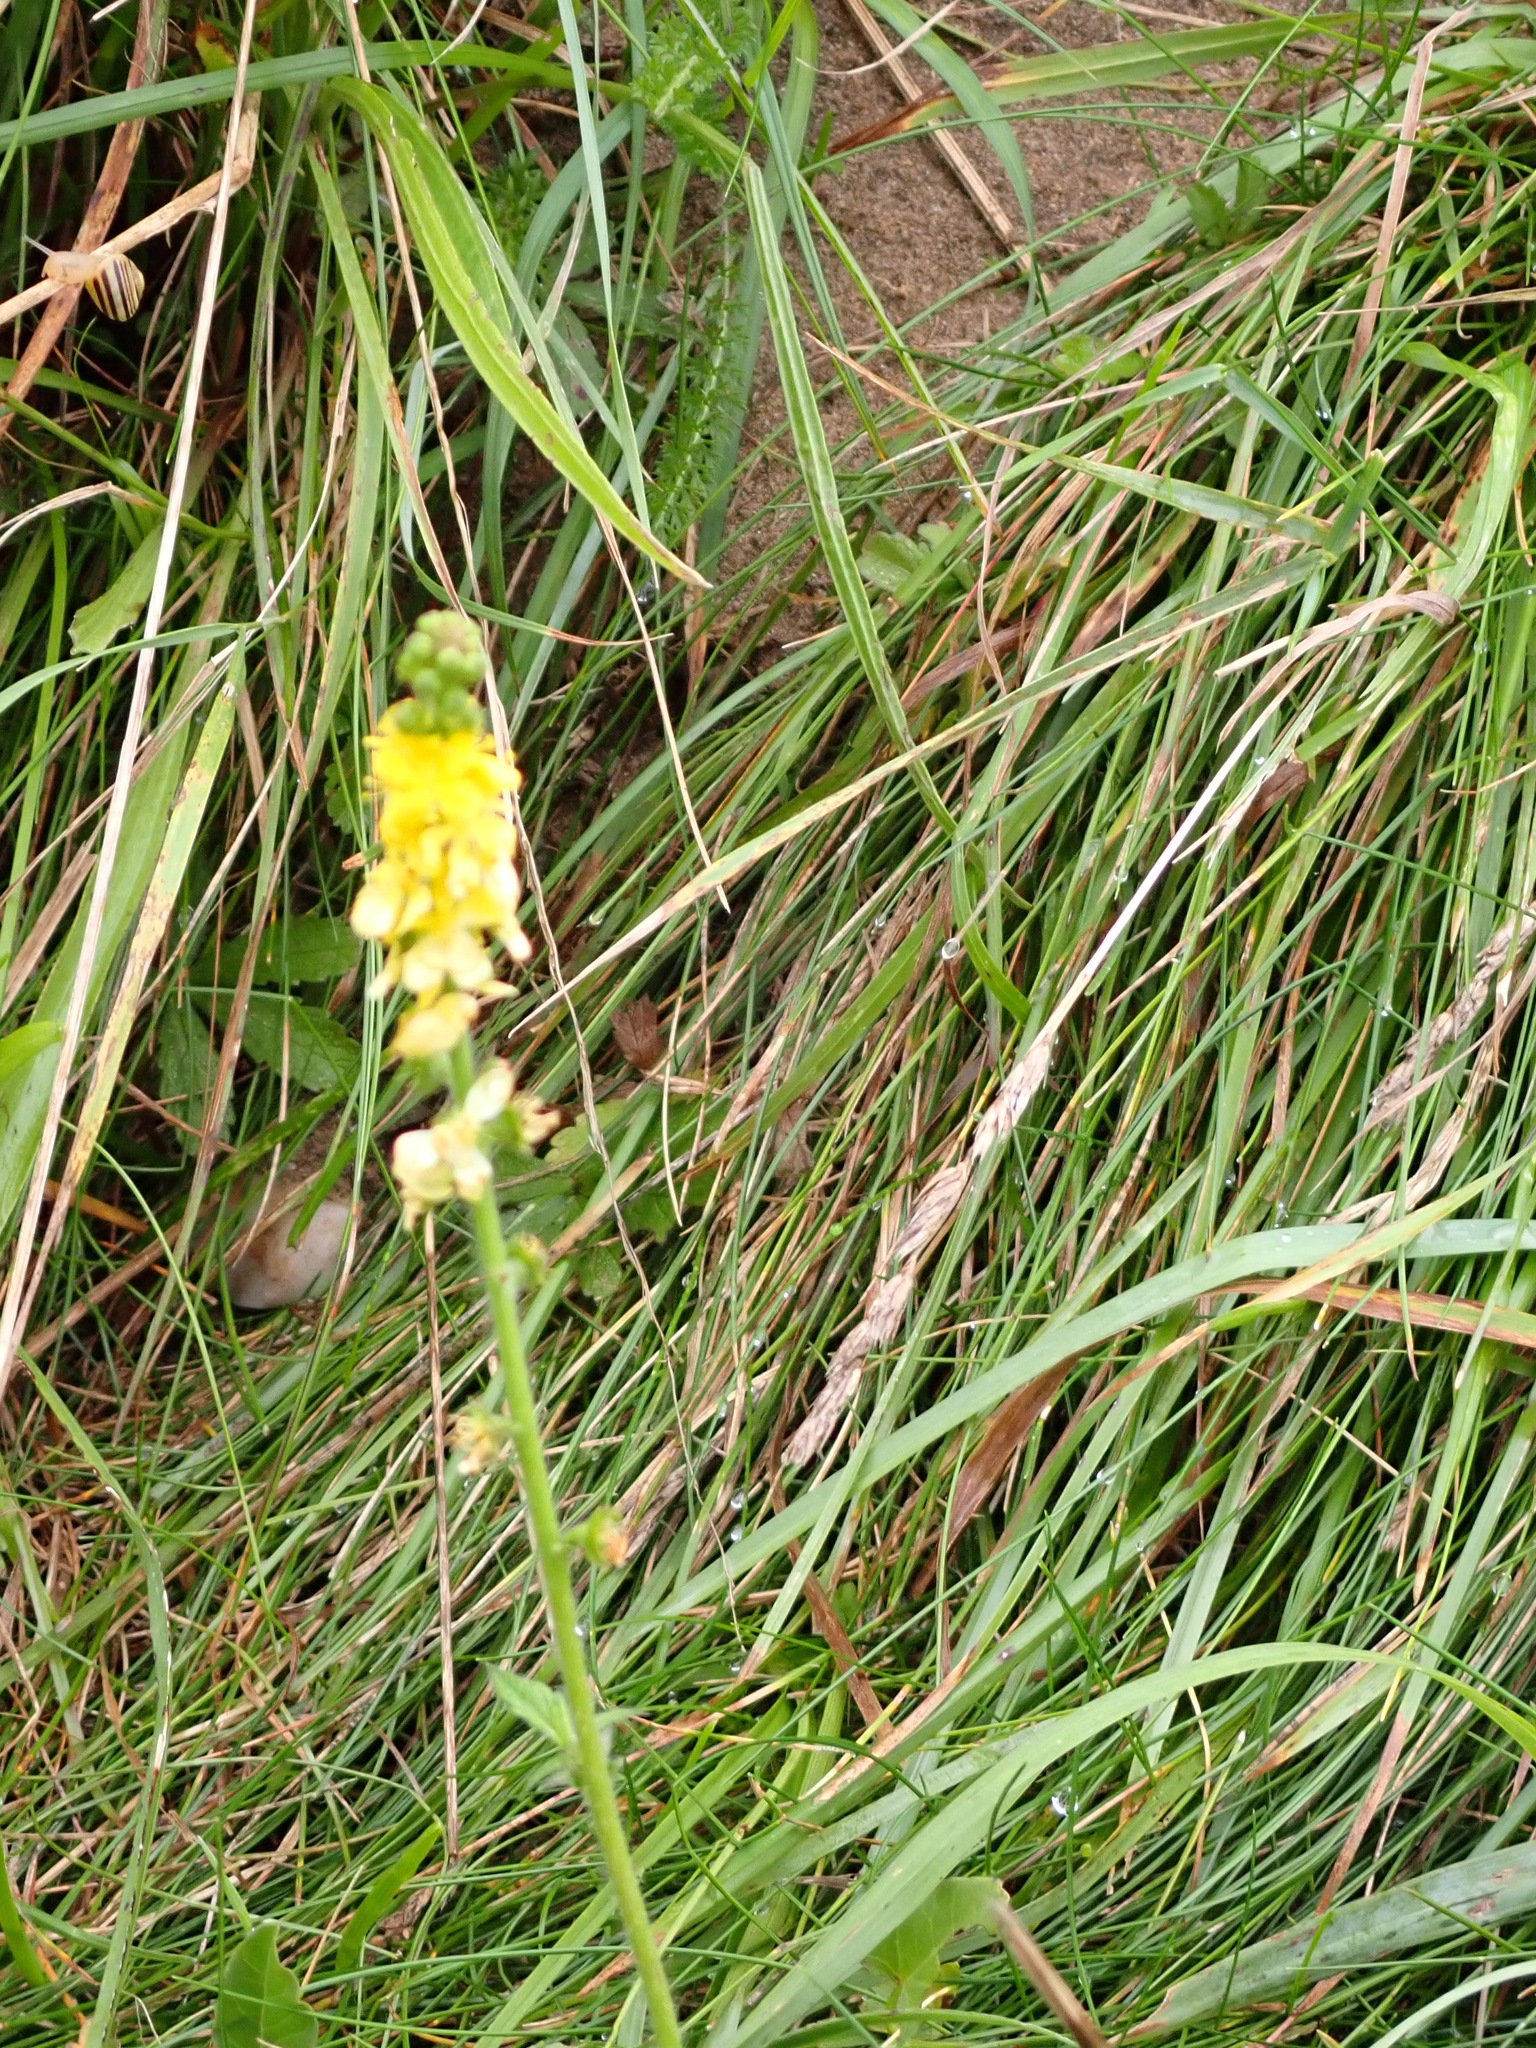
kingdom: Plantae
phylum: Tracheophyta
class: Magnoliopsida
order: Rosales
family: Rosaceae
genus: Agrimonia
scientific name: Agrimonia eupatoria
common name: Agrimony
